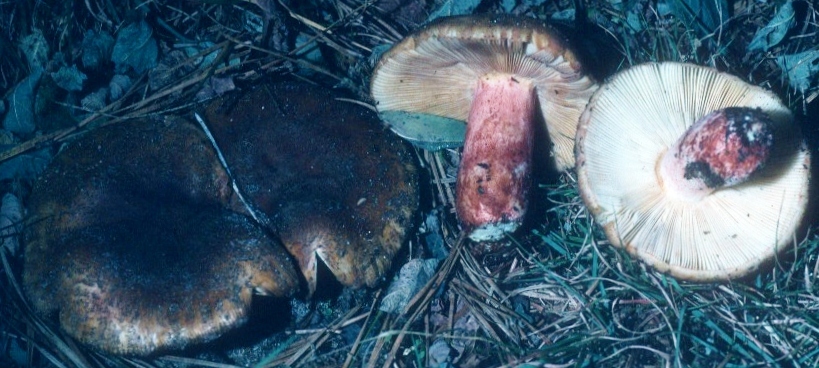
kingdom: Fungi
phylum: Basidiomycota
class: Agaricomycetes
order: Russulales
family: Russulaceae
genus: Russula
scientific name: Russula ventricosipes
